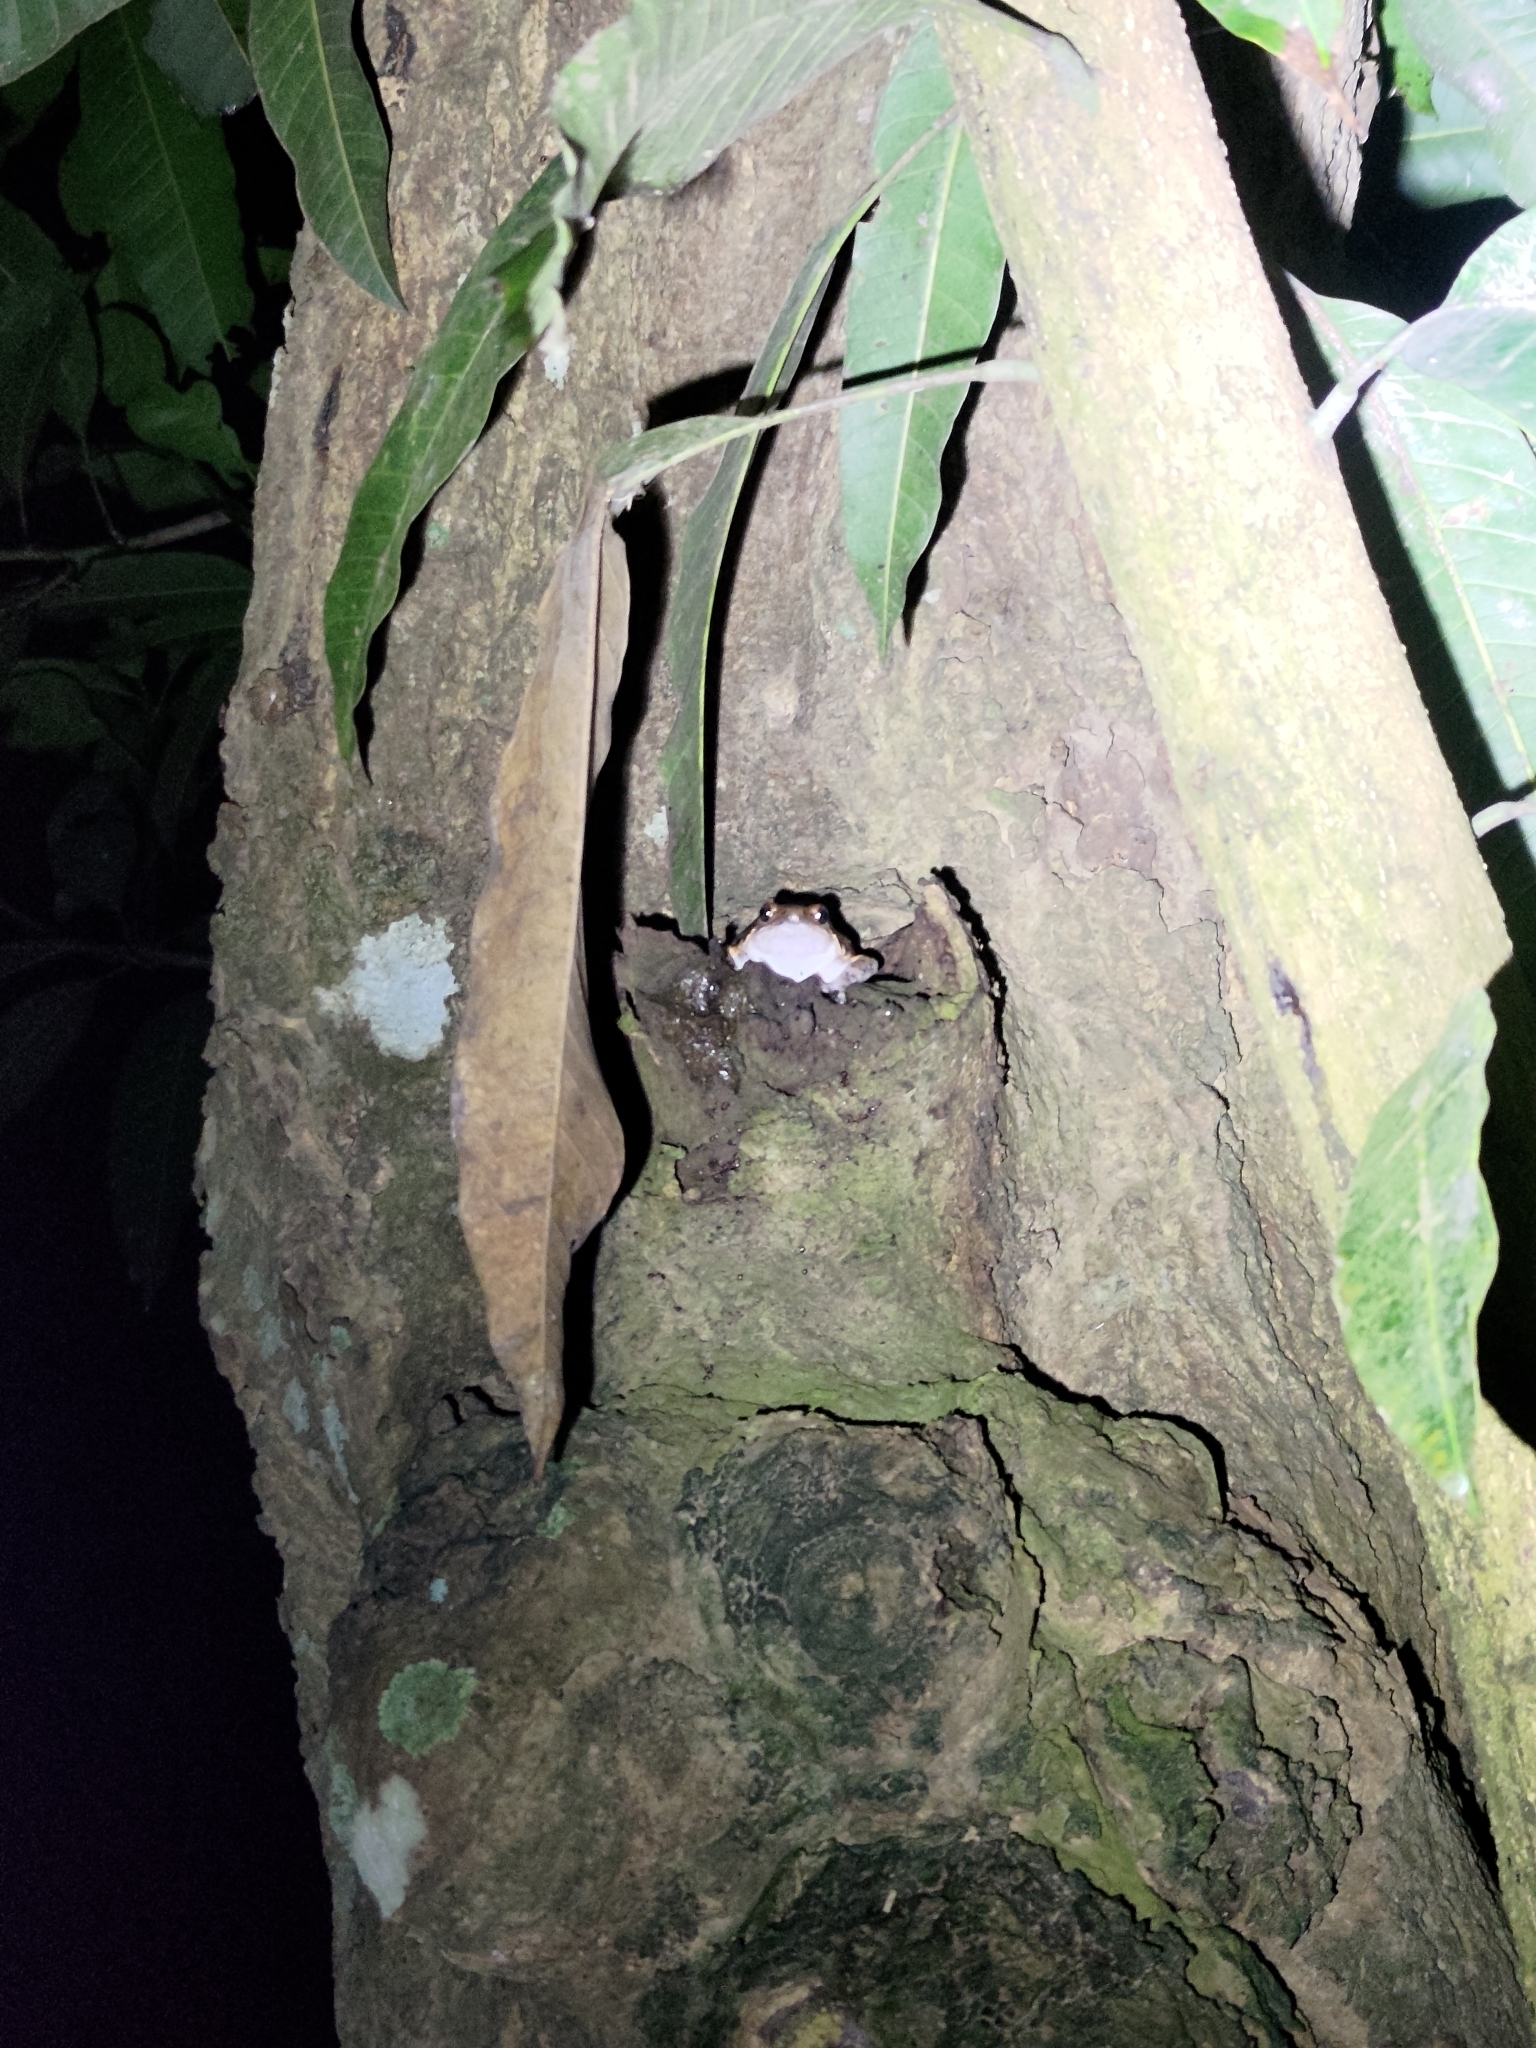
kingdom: Animalia
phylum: Chordata
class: Amphibia
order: Anura
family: Microhylidae
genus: Kaloula
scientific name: Kaloula pulchra
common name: Common,banded bullfrog
